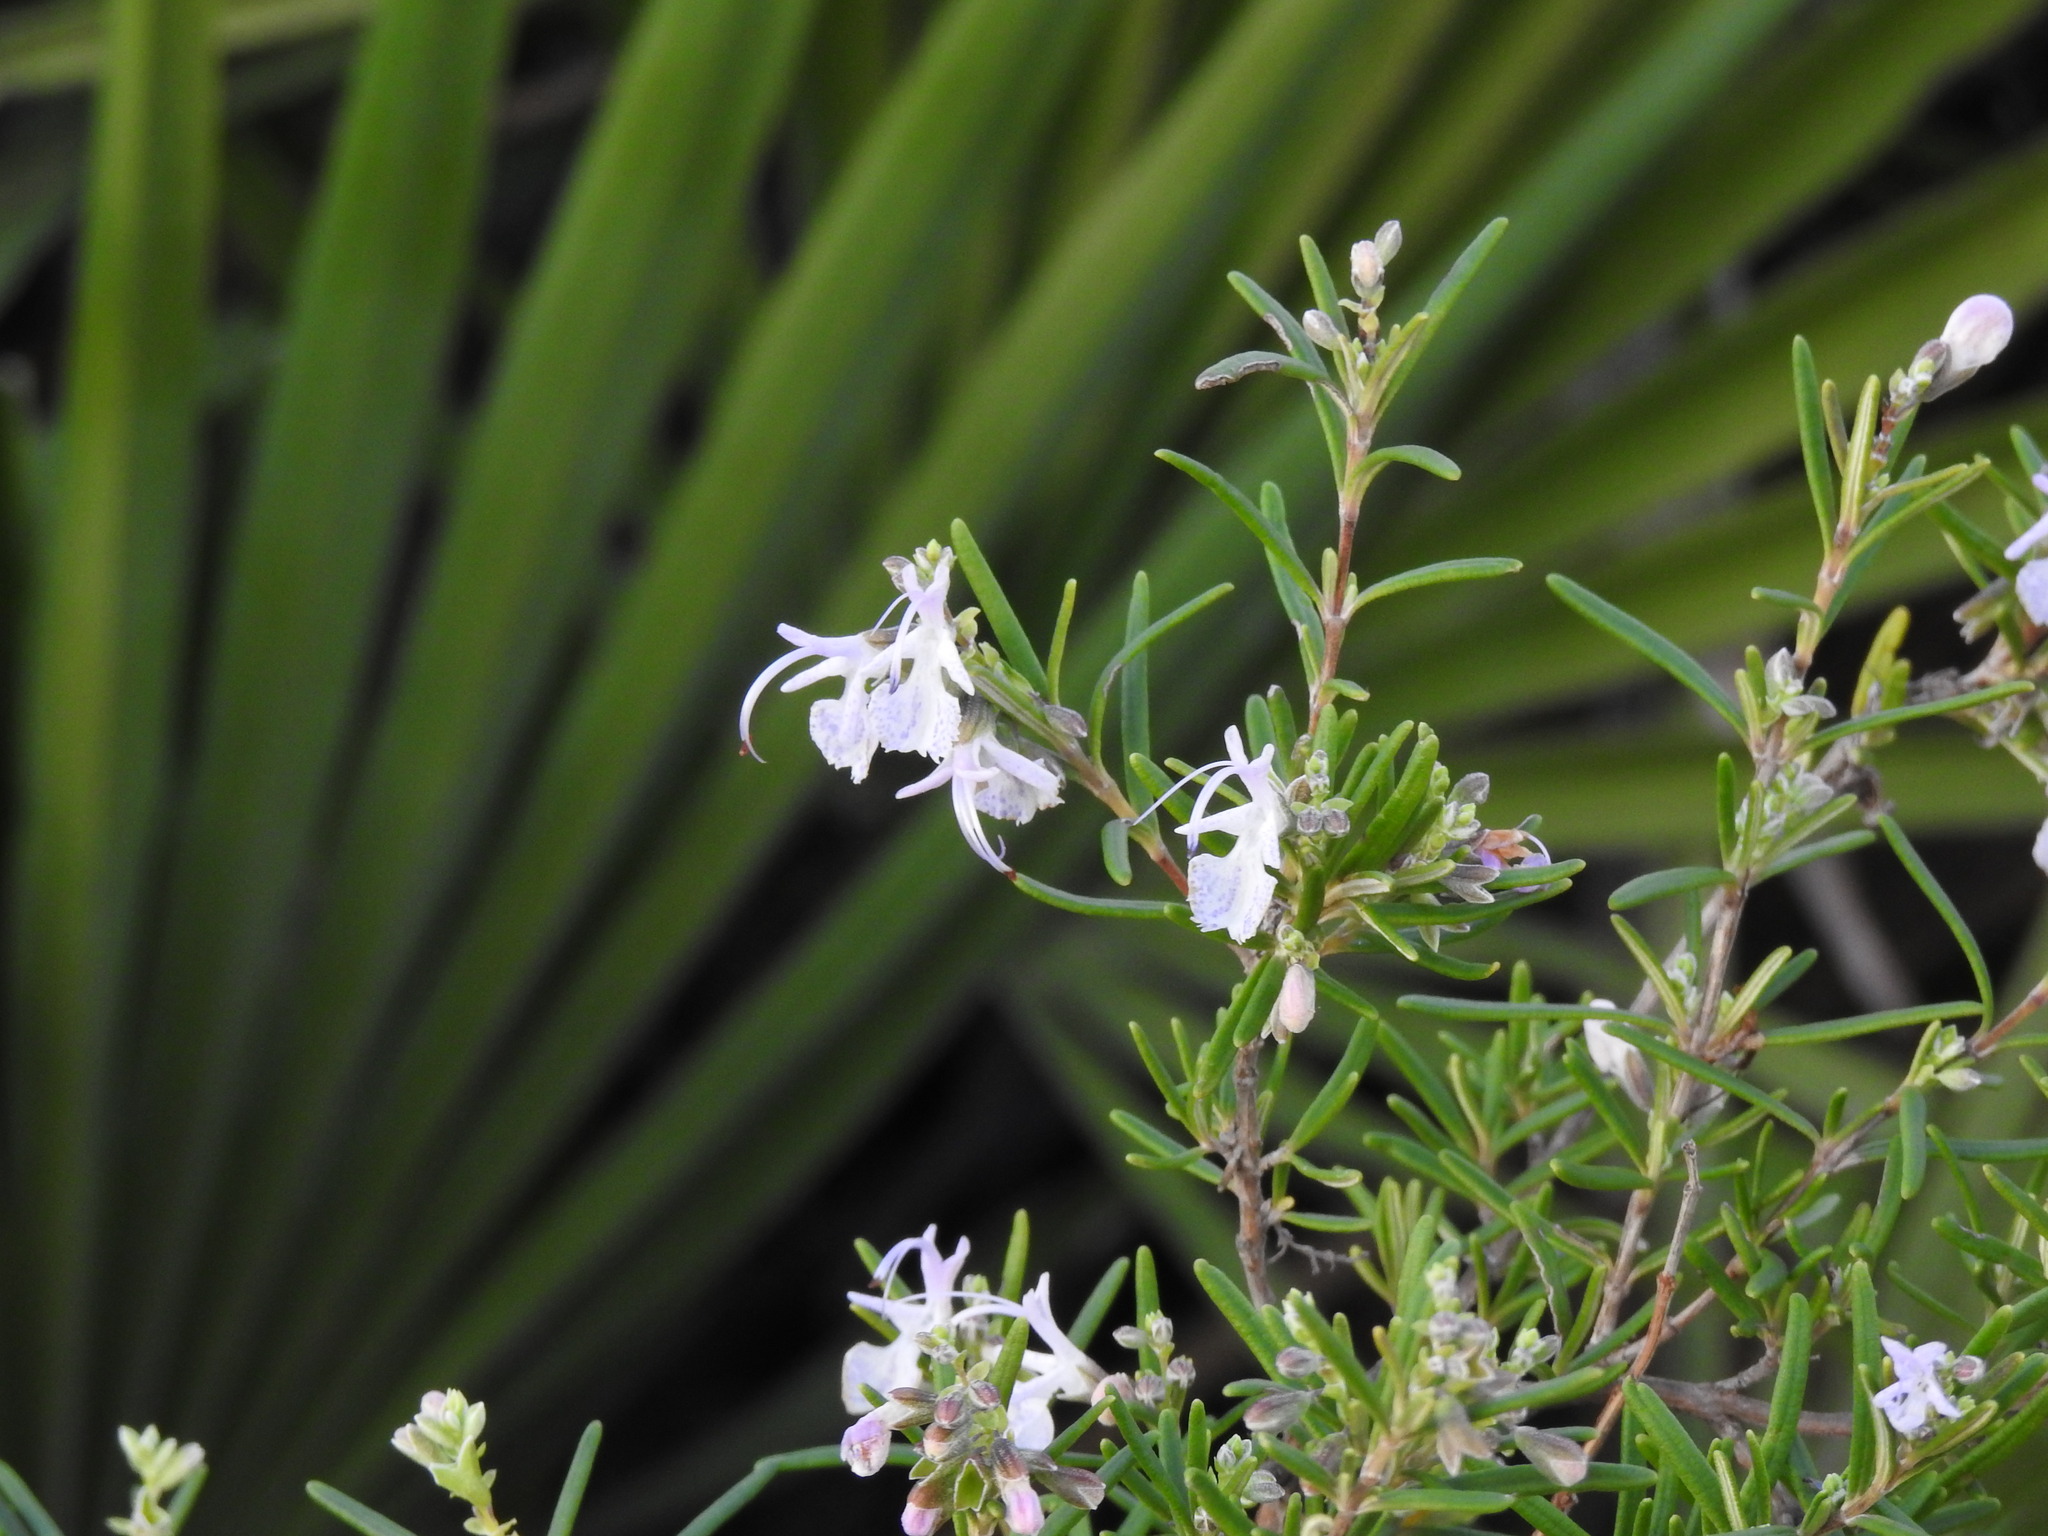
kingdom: Plantae
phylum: Tracheophyta
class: Magnoliopsida
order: Lamiales
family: Lamiaceae
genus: Salvia
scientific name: Salvia rosmarinus
